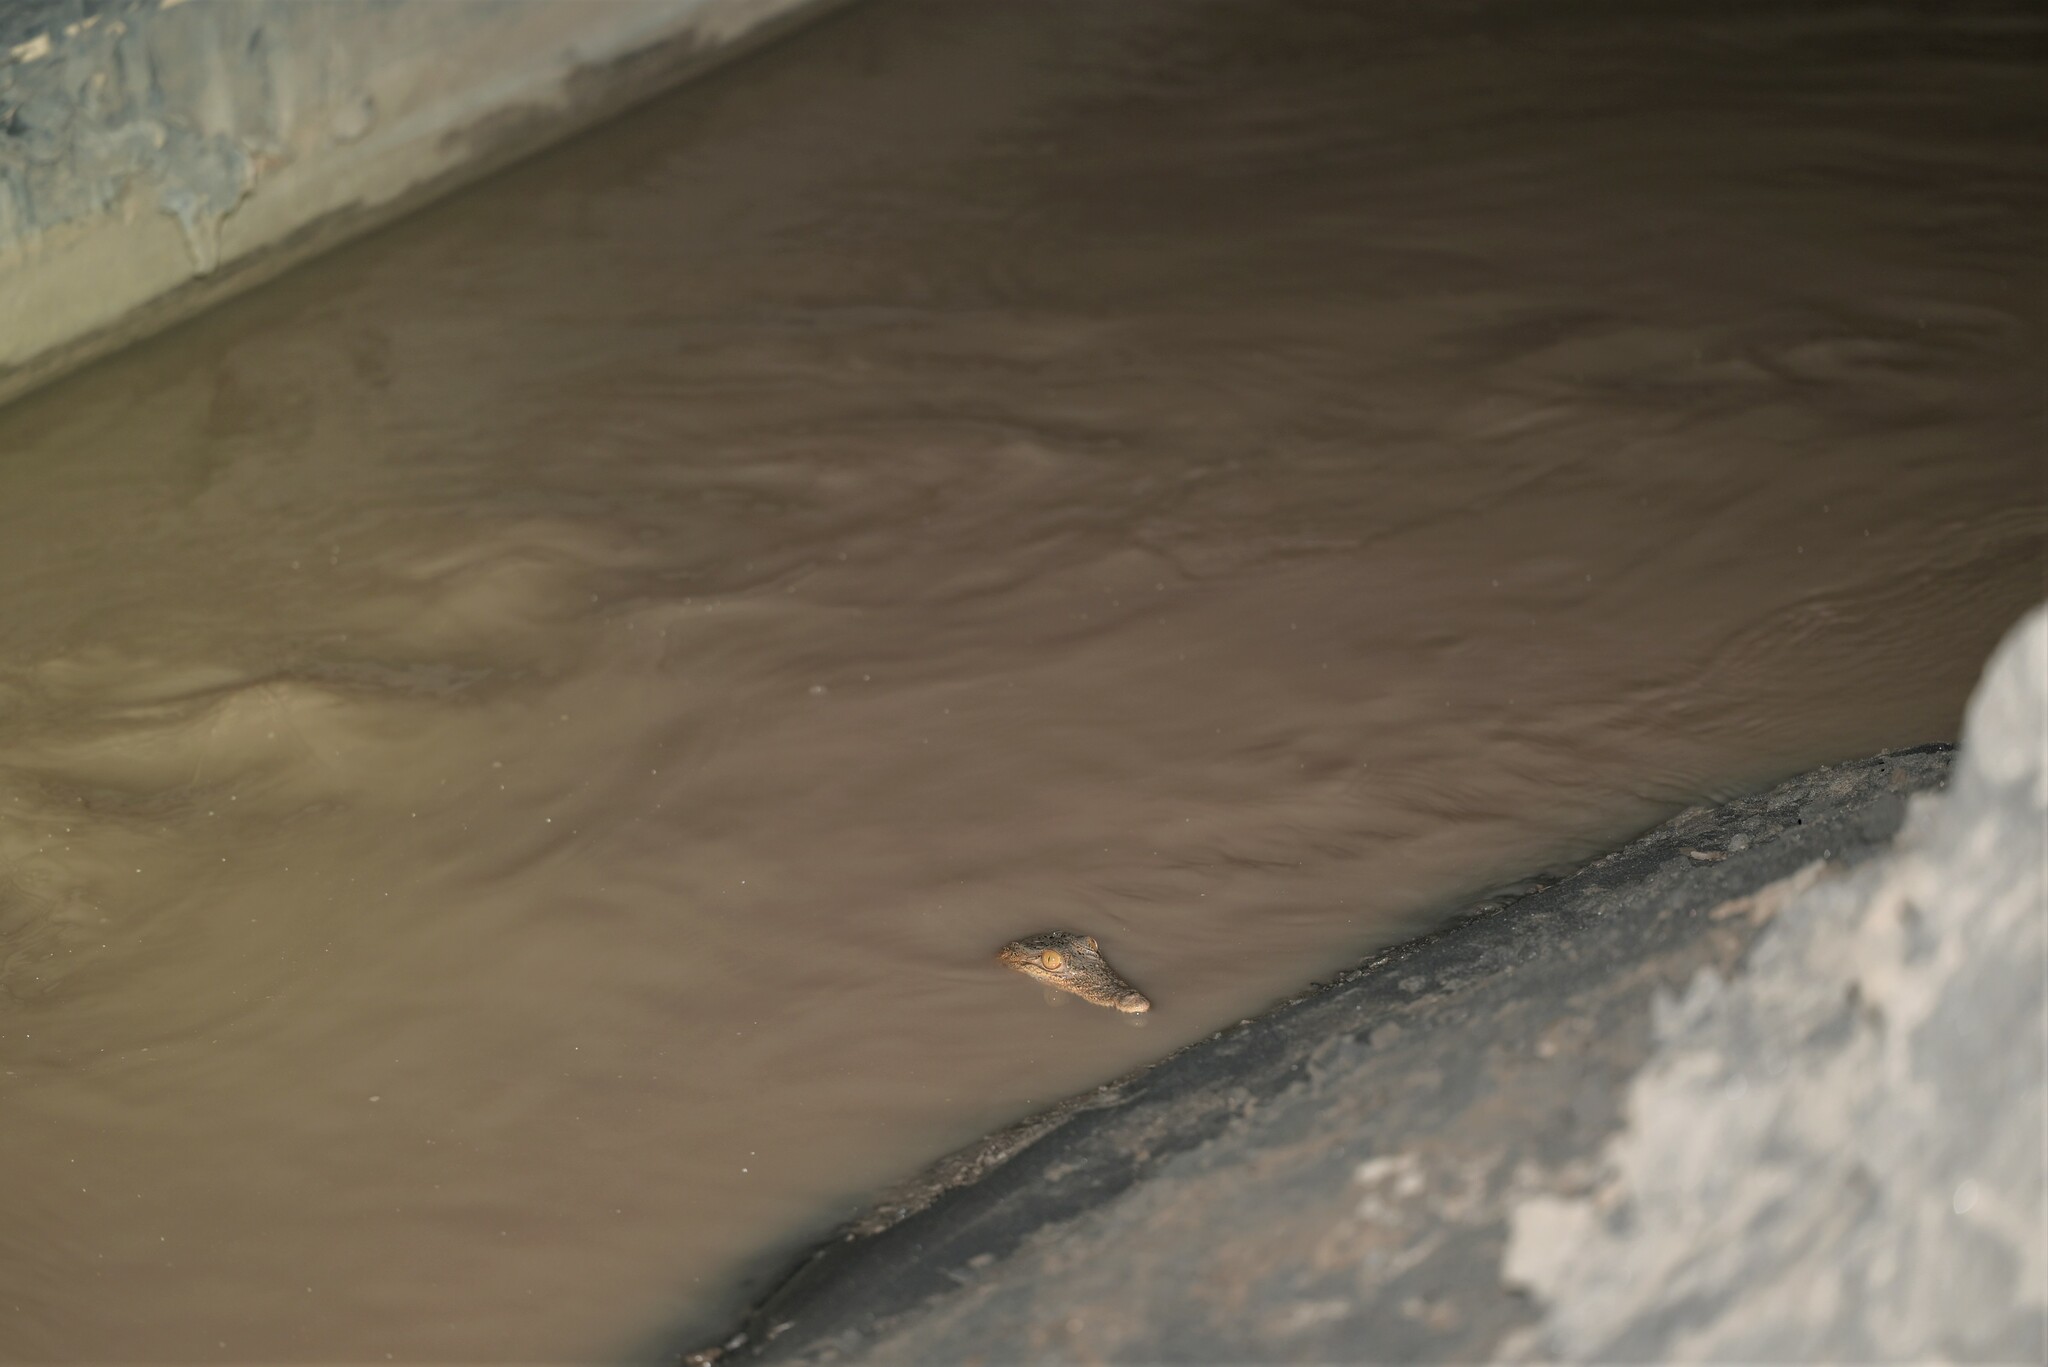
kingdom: Animalia
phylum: Chordata
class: Crocodylia
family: Crocodylidae
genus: Crocodylus
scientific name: Crocodylus niloticus
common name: Nile crocodile
